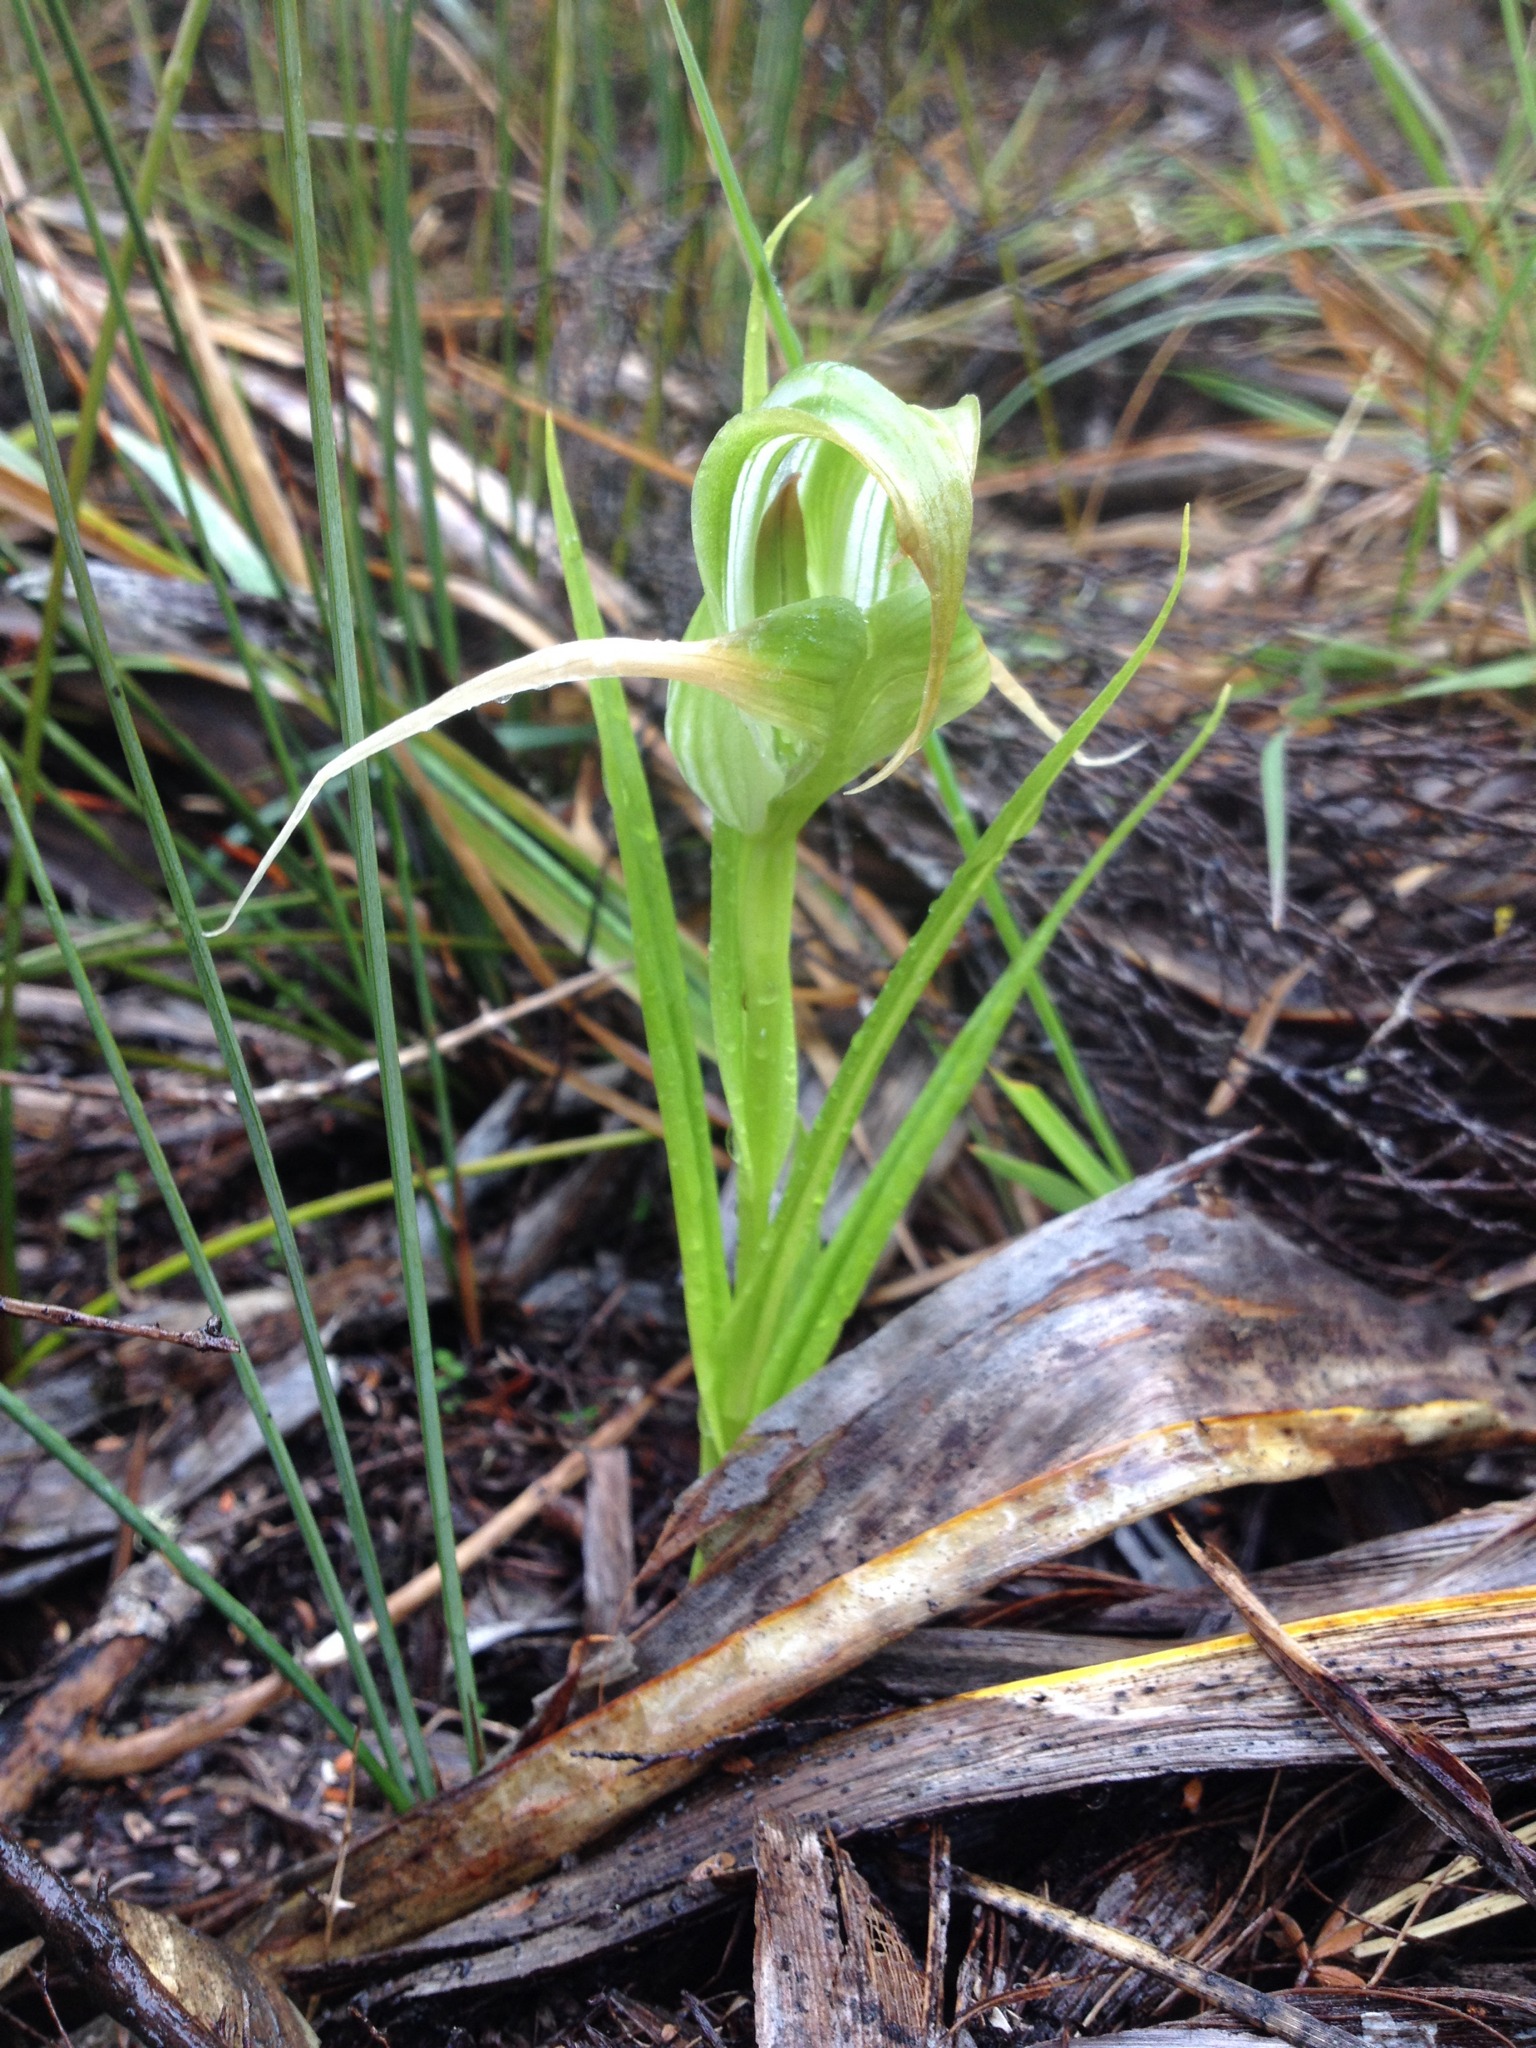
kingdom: Plantae
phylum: Tracheophyta
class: Liliopsida
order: Asparagales
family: Orchidaceae
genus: Pterostylis
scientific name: Pterostylis patens
